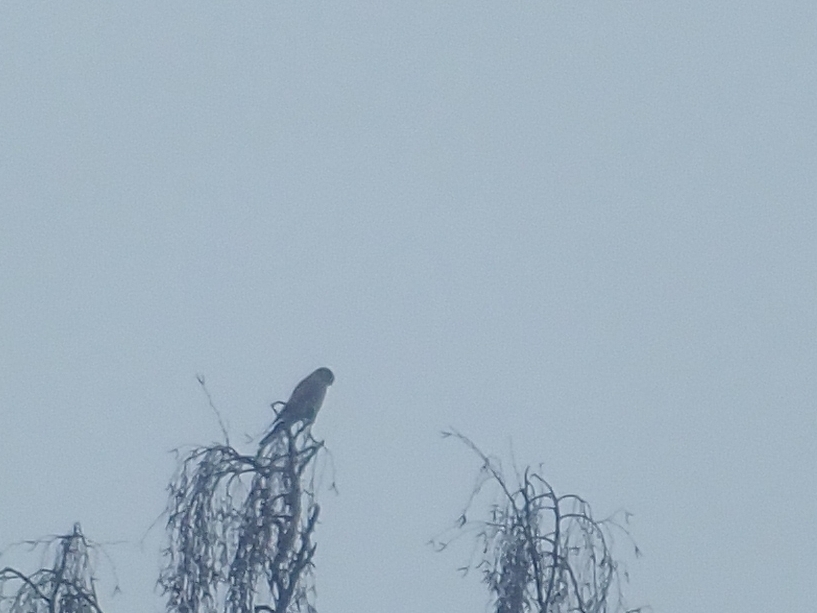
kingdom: Animalia
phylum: Chordata
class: Aves
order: Falconiformes
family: Falconidae
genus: Falco
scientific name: Falco tinnunculus
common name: Common kestrel
